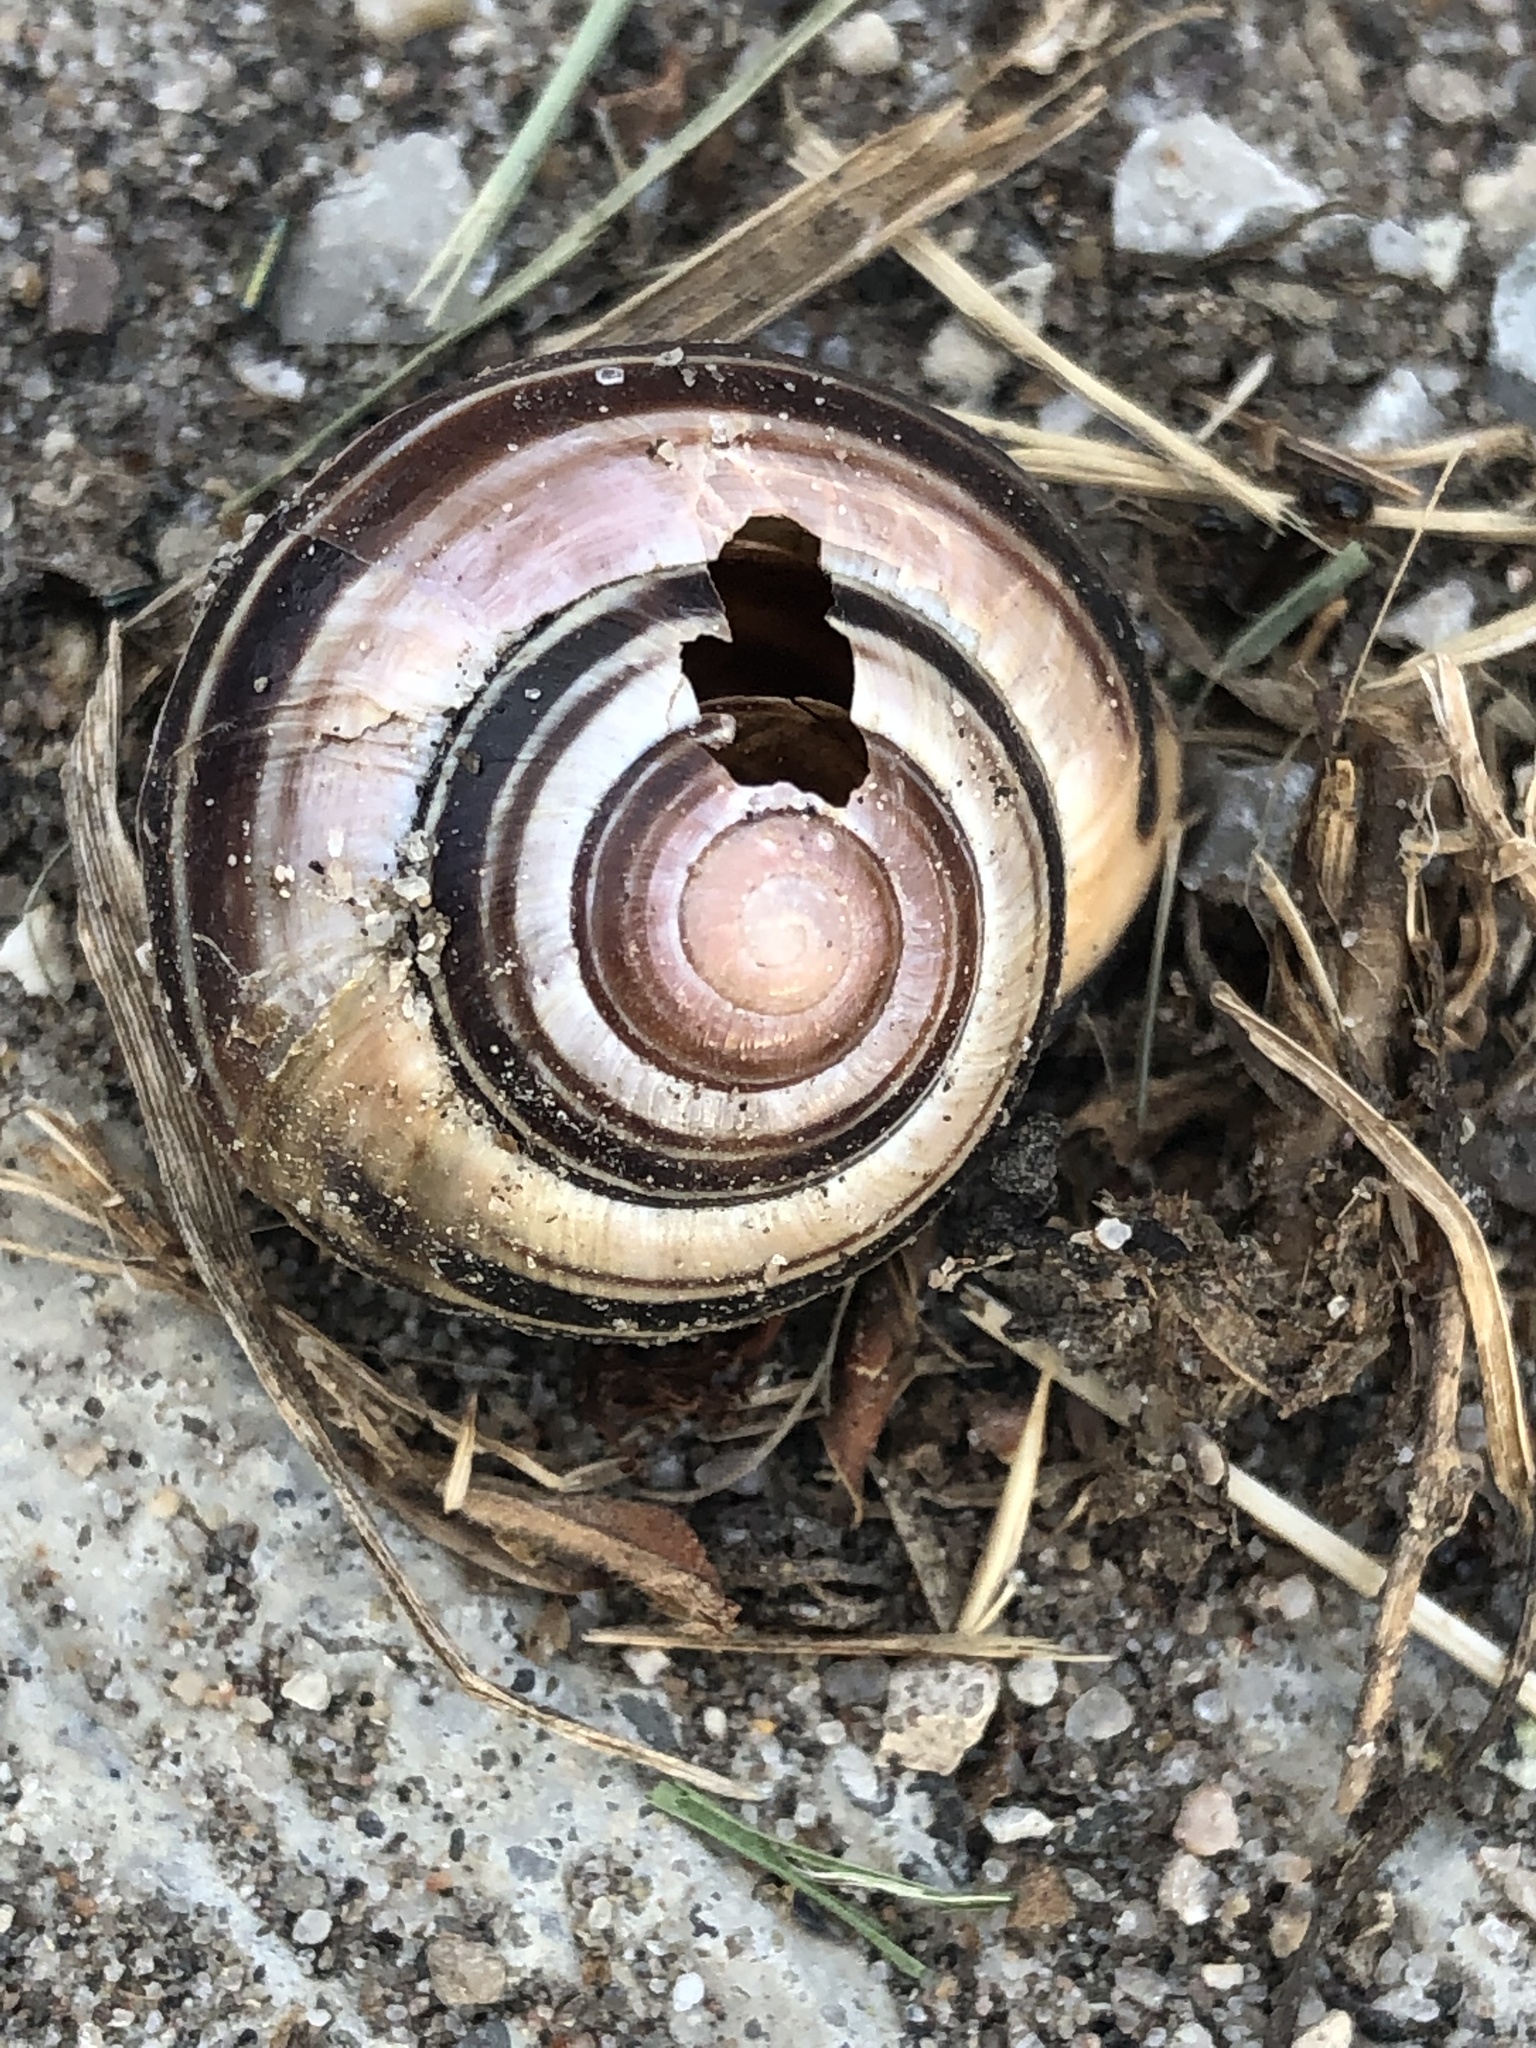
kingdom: Animalia
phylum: Mollusca
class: Gastropoda
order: Stylommatophora
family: Helicidae
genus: Cepaea
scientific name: Cepaea nemoralis
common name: Grovesnail
